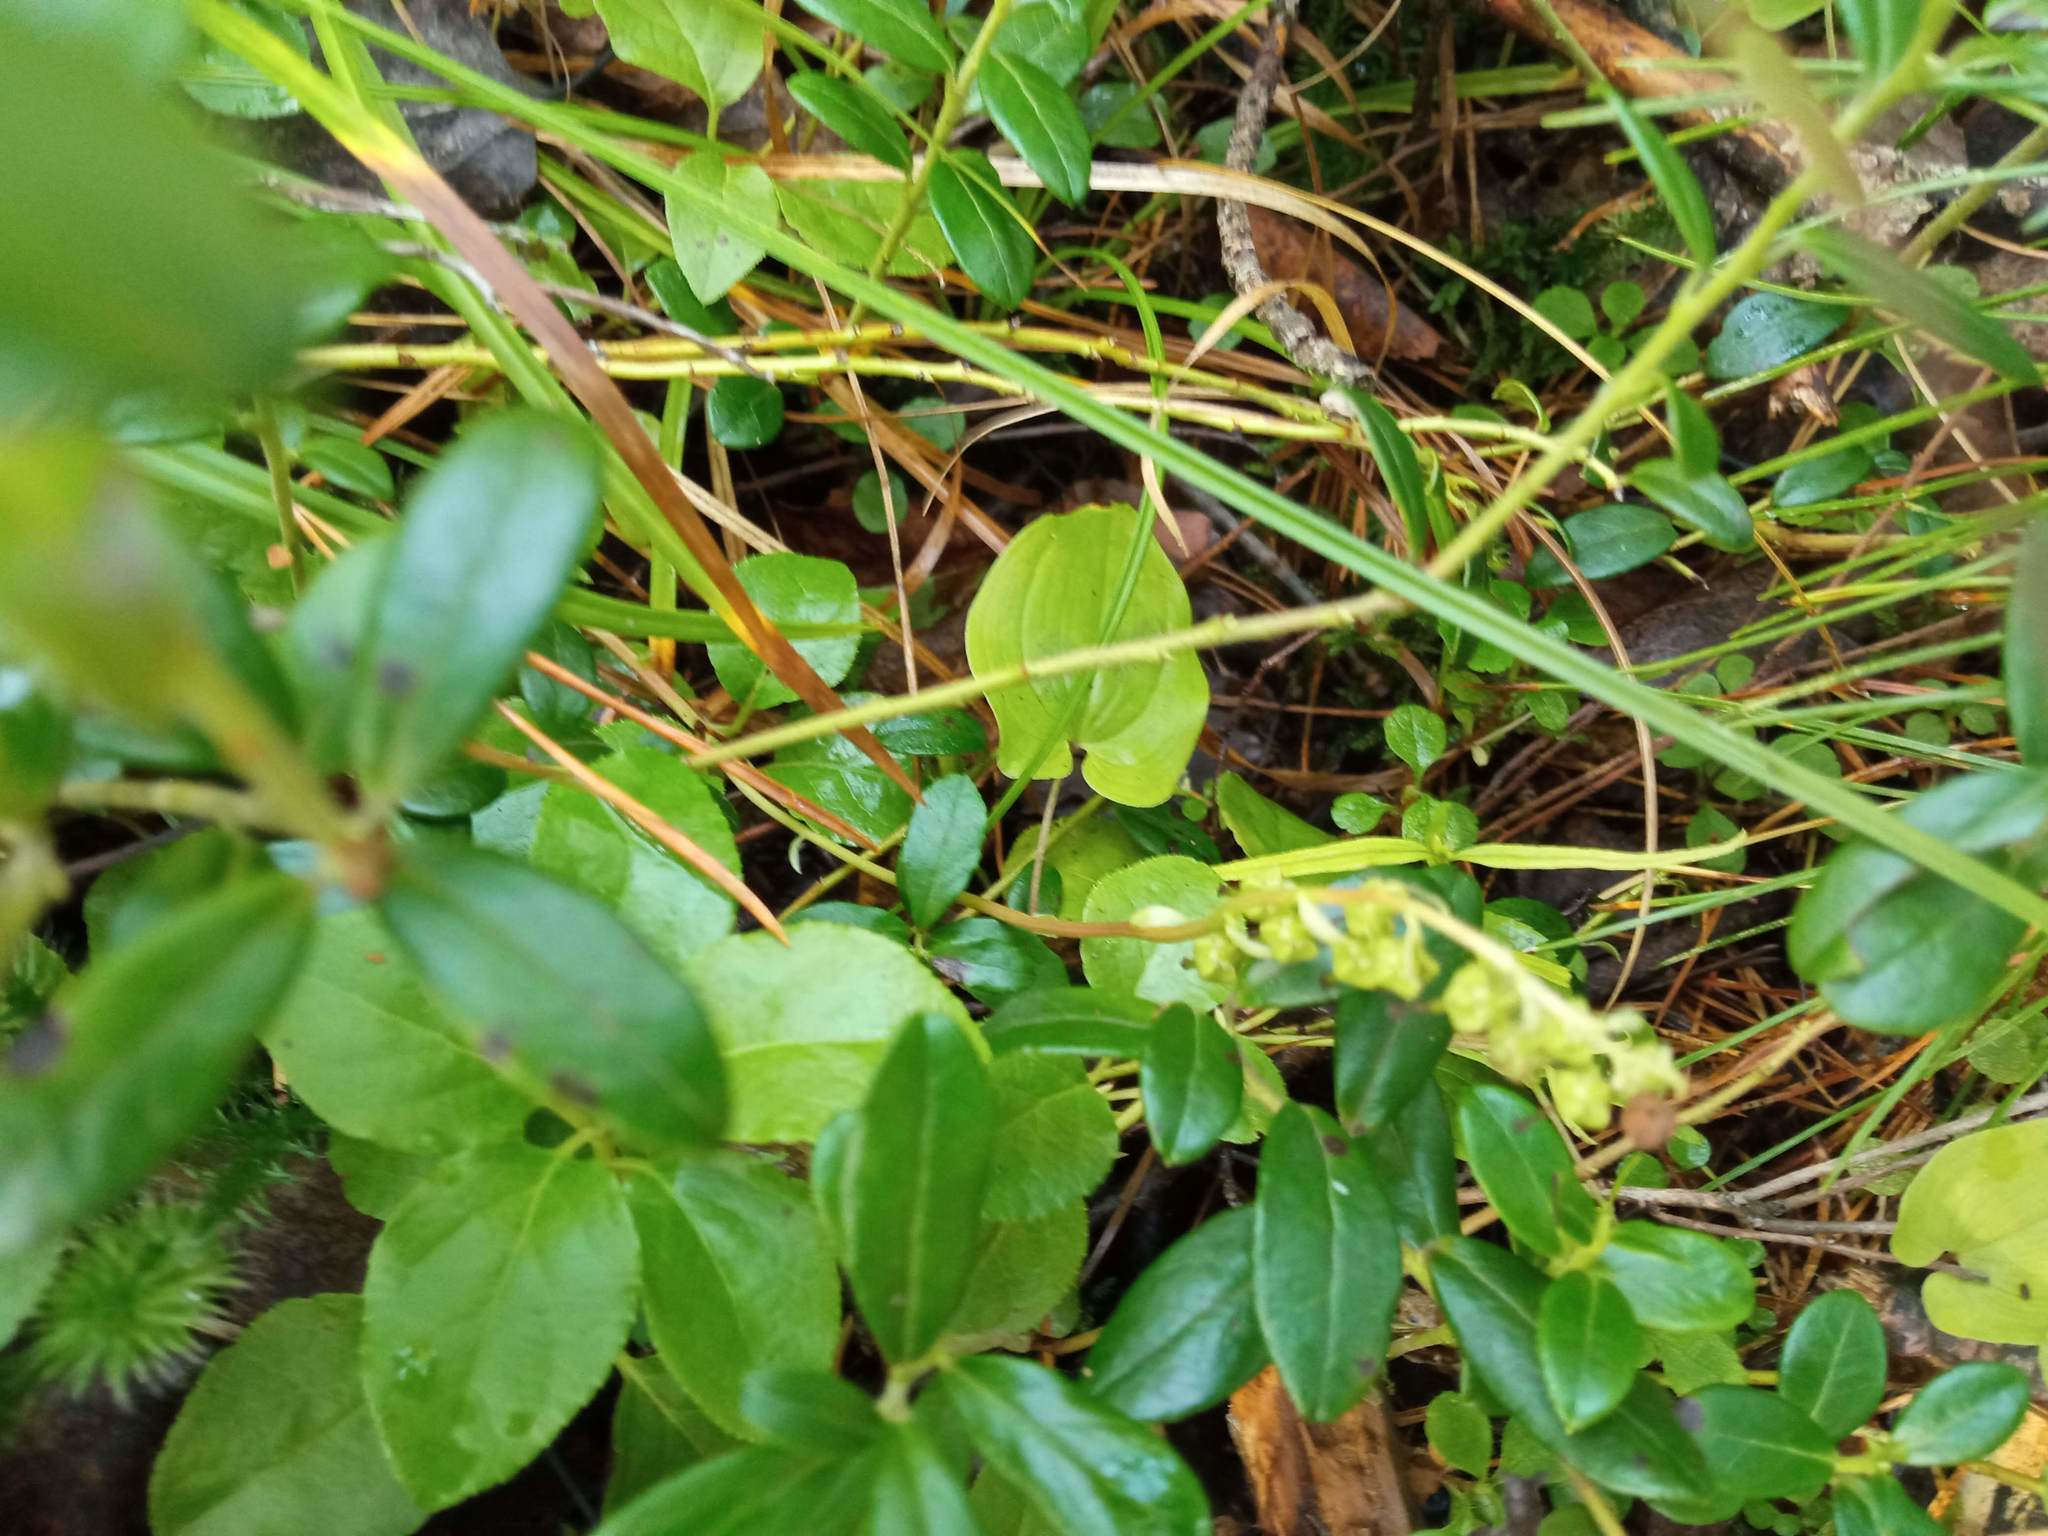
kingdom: Plantae
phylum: Tracheophyta
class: Magnoliopsida
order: Ericales
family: Ericaceae
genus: Orthilia
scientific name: Orthilia secunda
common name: One-sided orthilia
